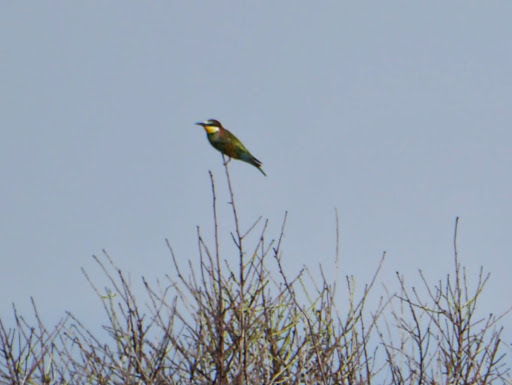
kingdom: Animalia
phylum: Chordata
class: Aves
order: Coraciiformes
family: Meropidae
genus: Merops
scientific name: Merops apiaster
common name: European bee-eater
